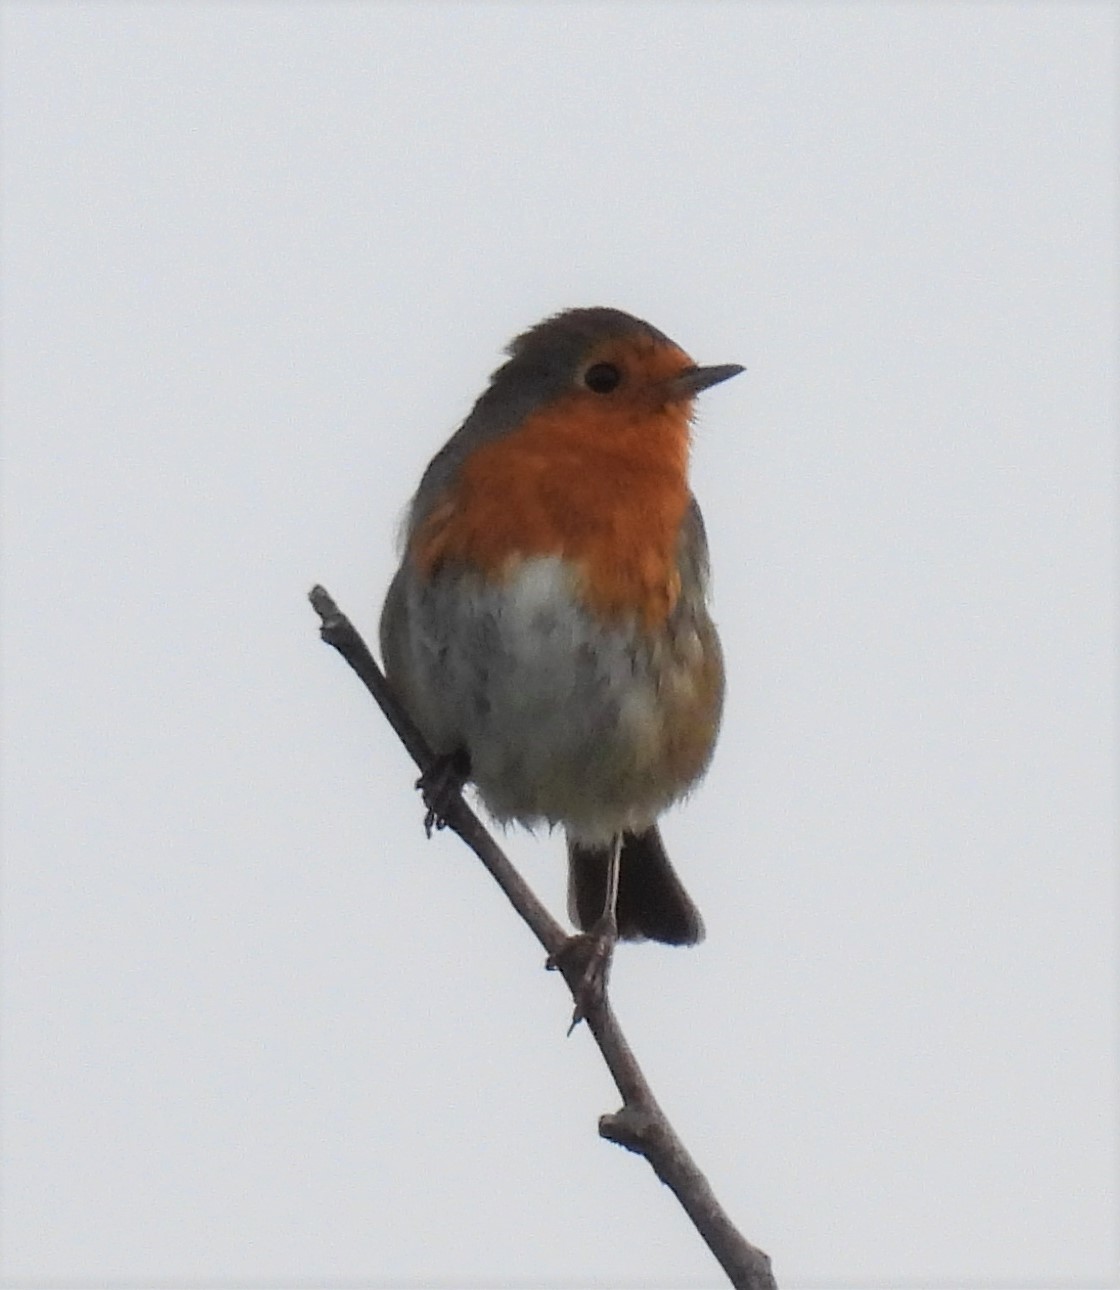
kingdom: Animalia
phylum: Chordata
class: Aves
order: Passeriformes
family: Muscicapidae
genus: Erithacus
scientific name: Erithacus rubecula
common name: European robin
